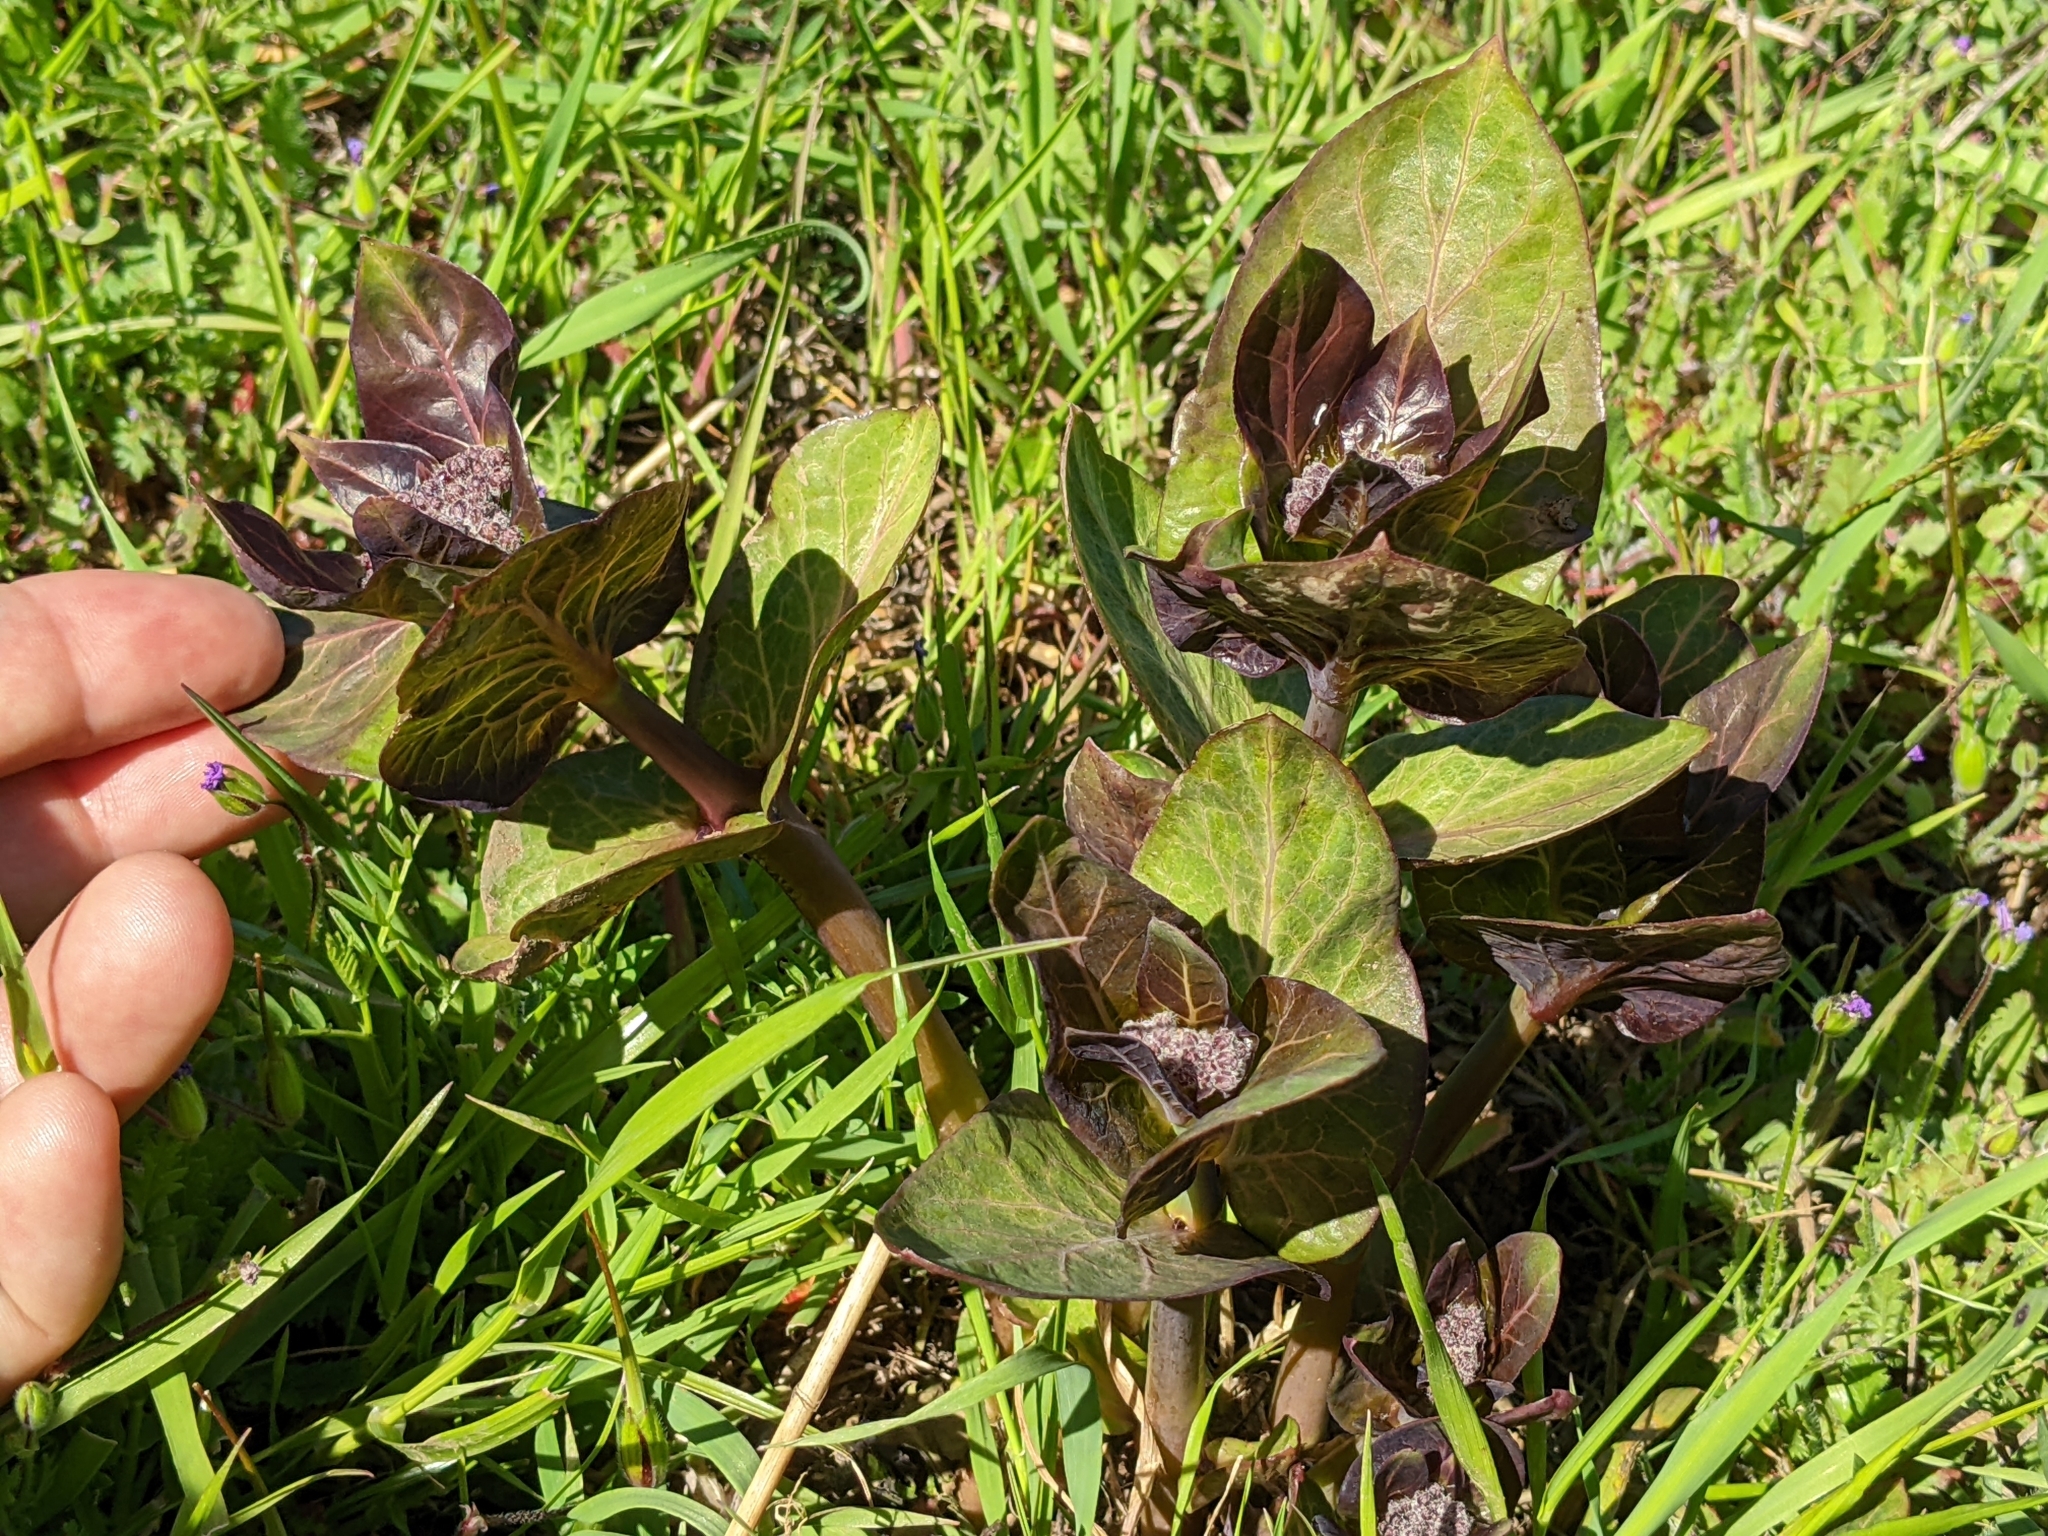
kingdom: Plantae
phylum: Tracheophyta
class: Magnoliopsida
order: Gentianales
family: Apocynaceae
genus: Asclepias
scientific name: Asclepias cordifolia
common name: Purple milkweed
